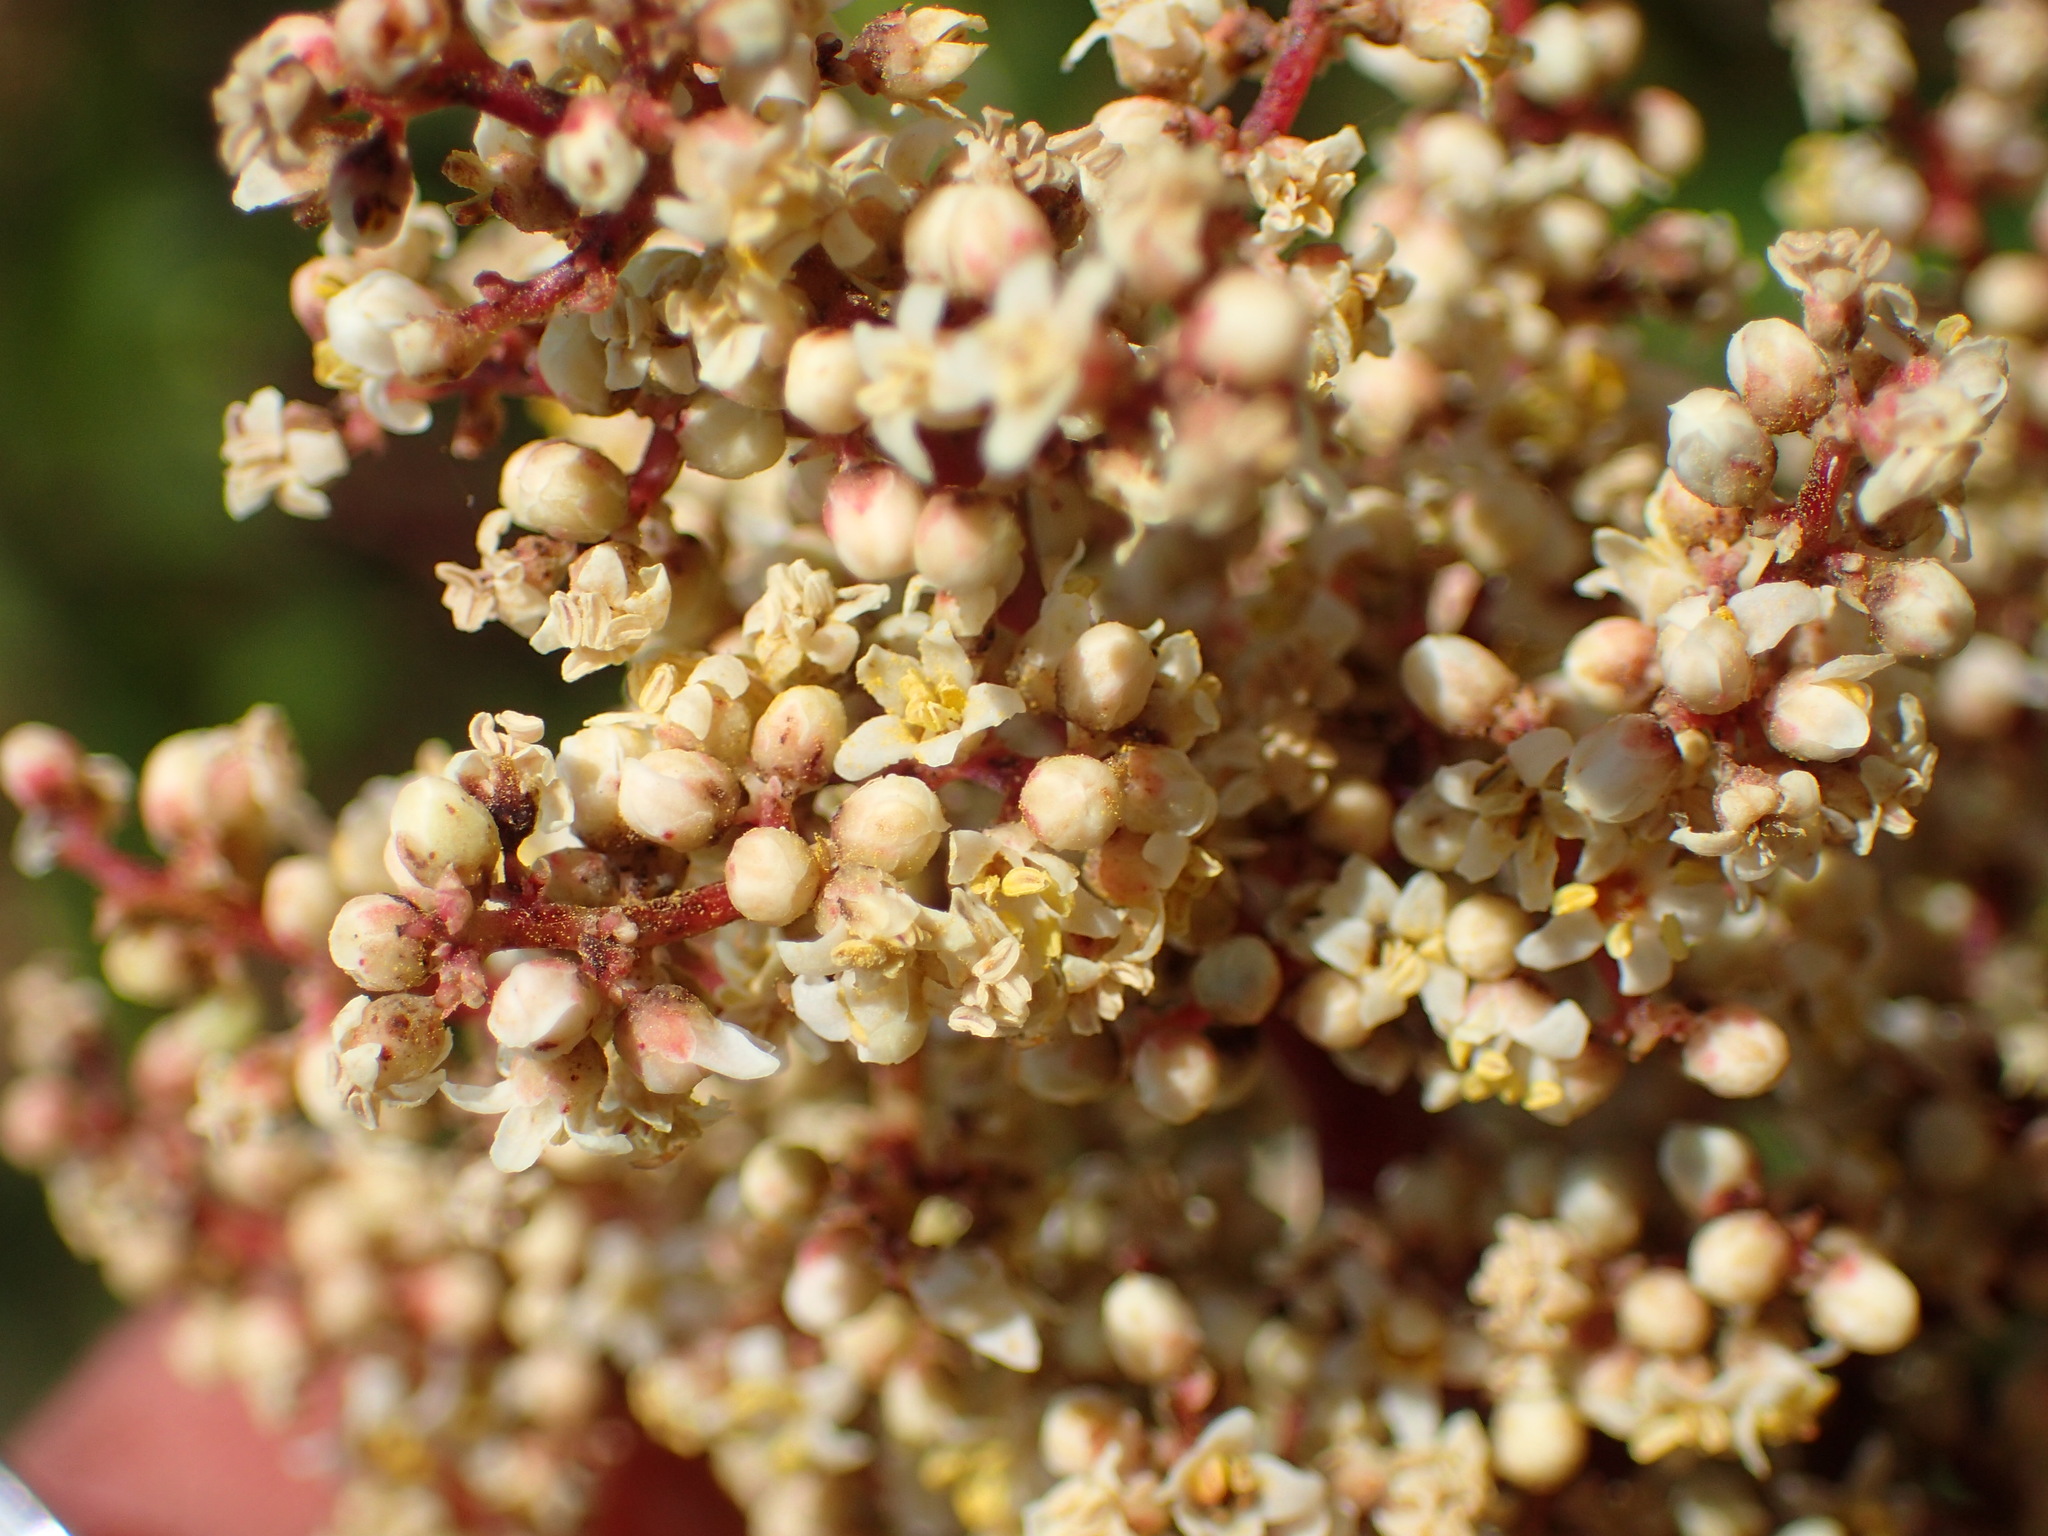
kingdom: Plantae
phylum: Tracheophyta
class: Magnoliopsida
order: Sapindales
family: Anacardiaceae
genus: Malosma
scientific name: Malosma laurina
